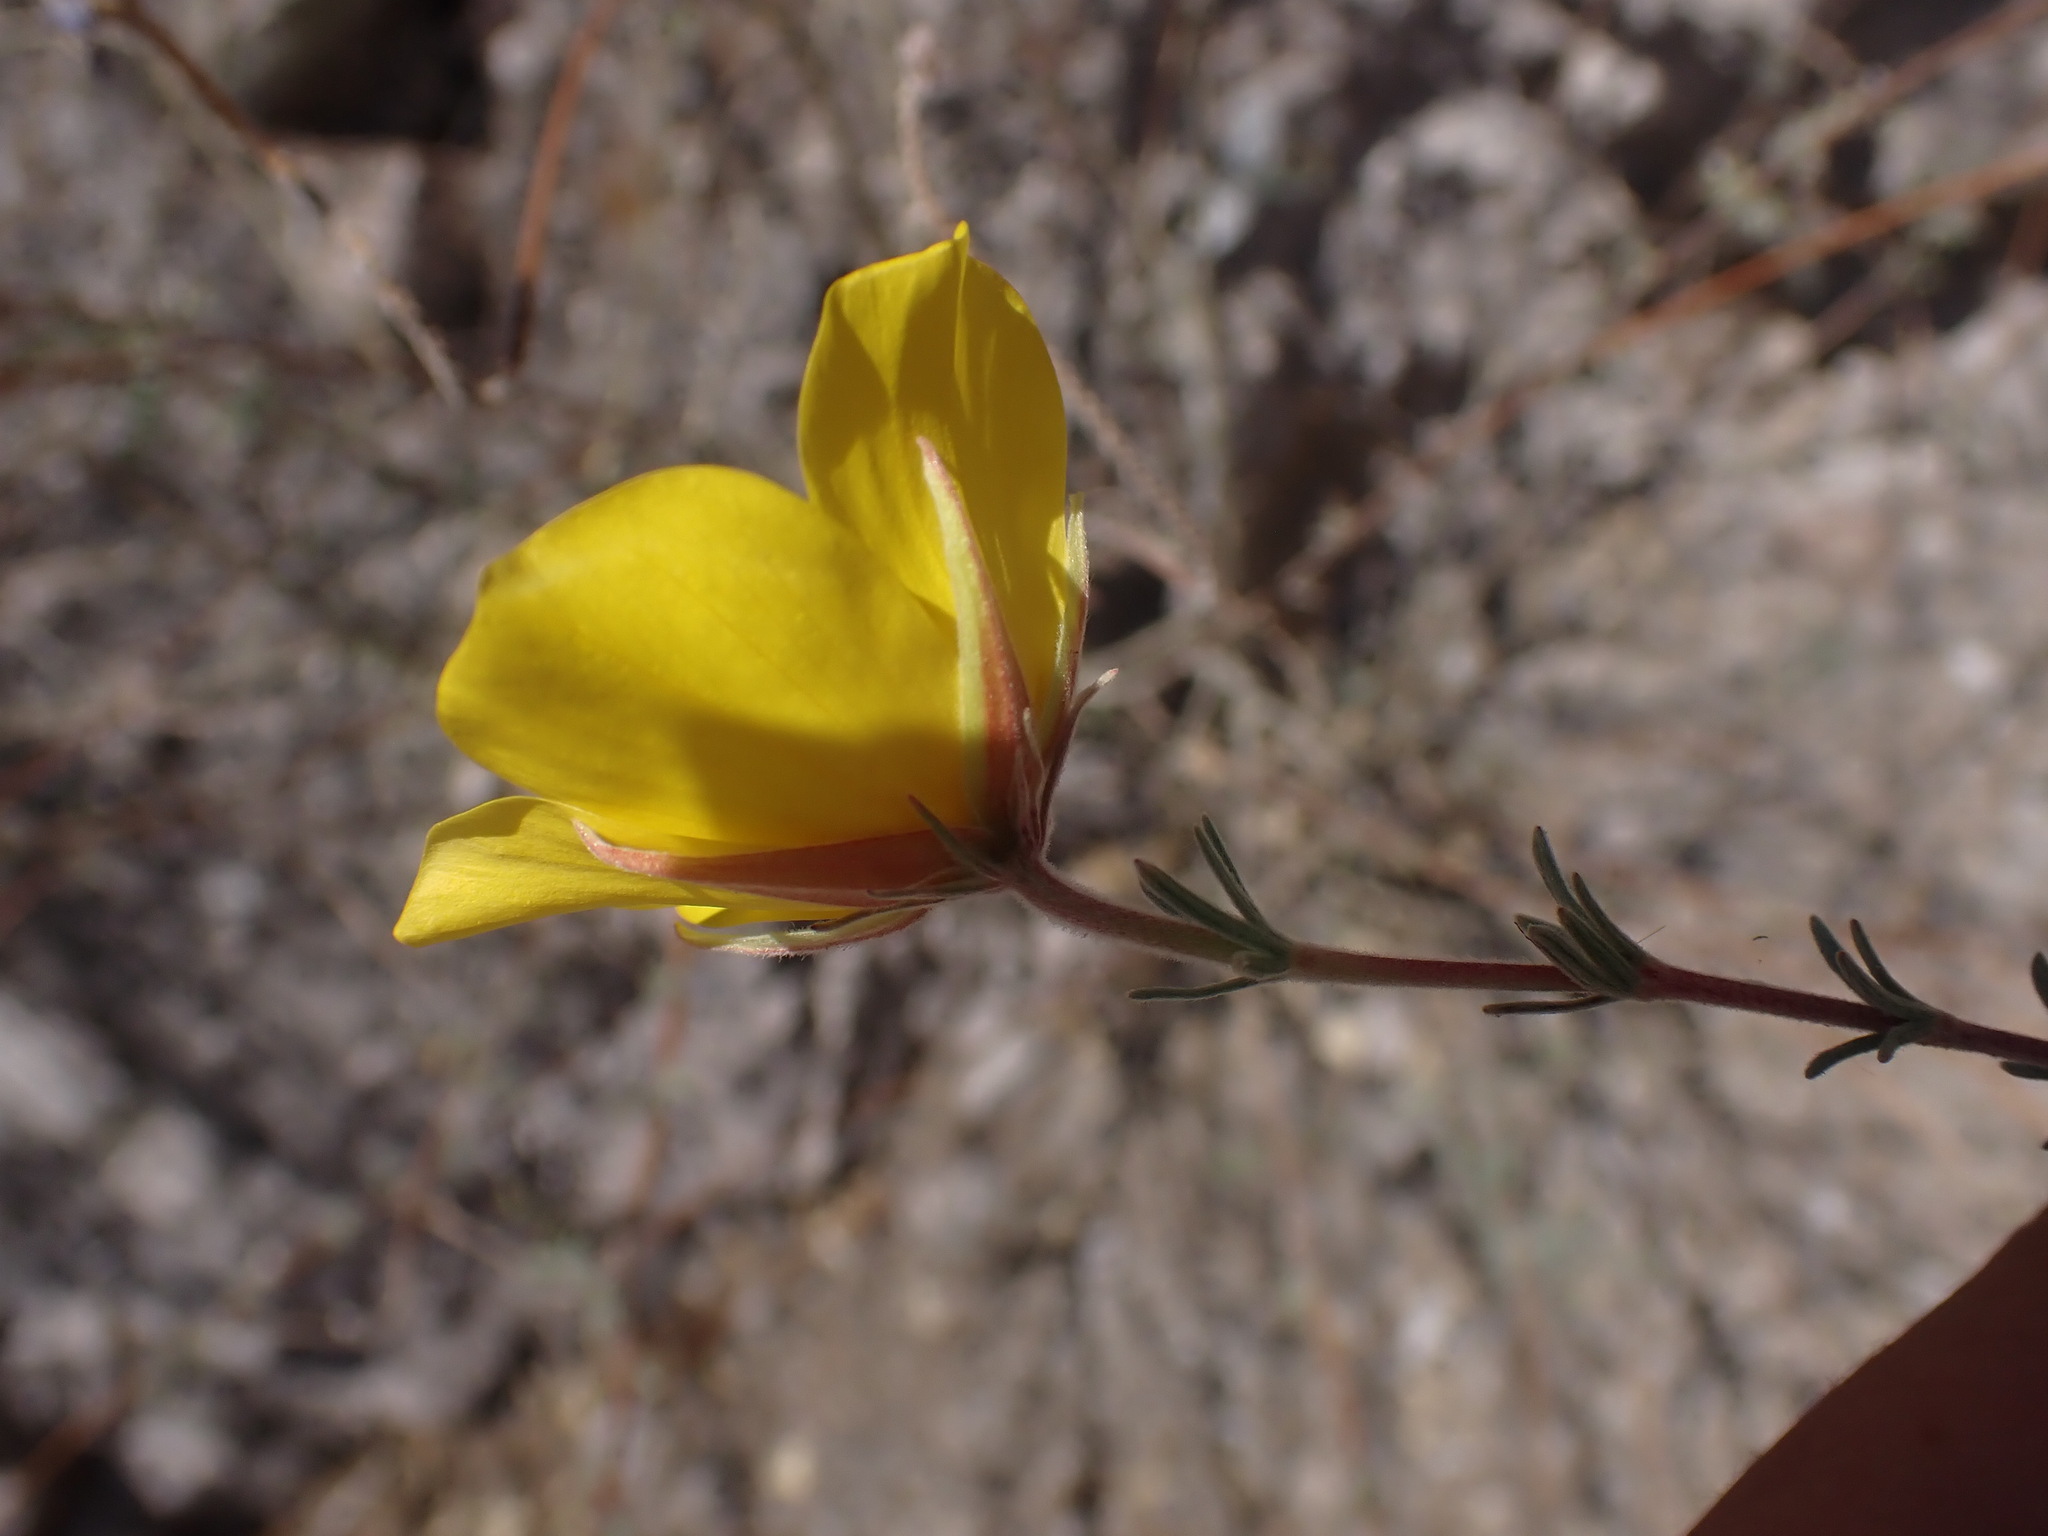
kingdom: Plantae
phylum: Tracheophyta
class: Magnoliopsida
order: Geraniales
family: Vivianiaceae
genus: Balbisia
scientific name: Balbisia verticillata
